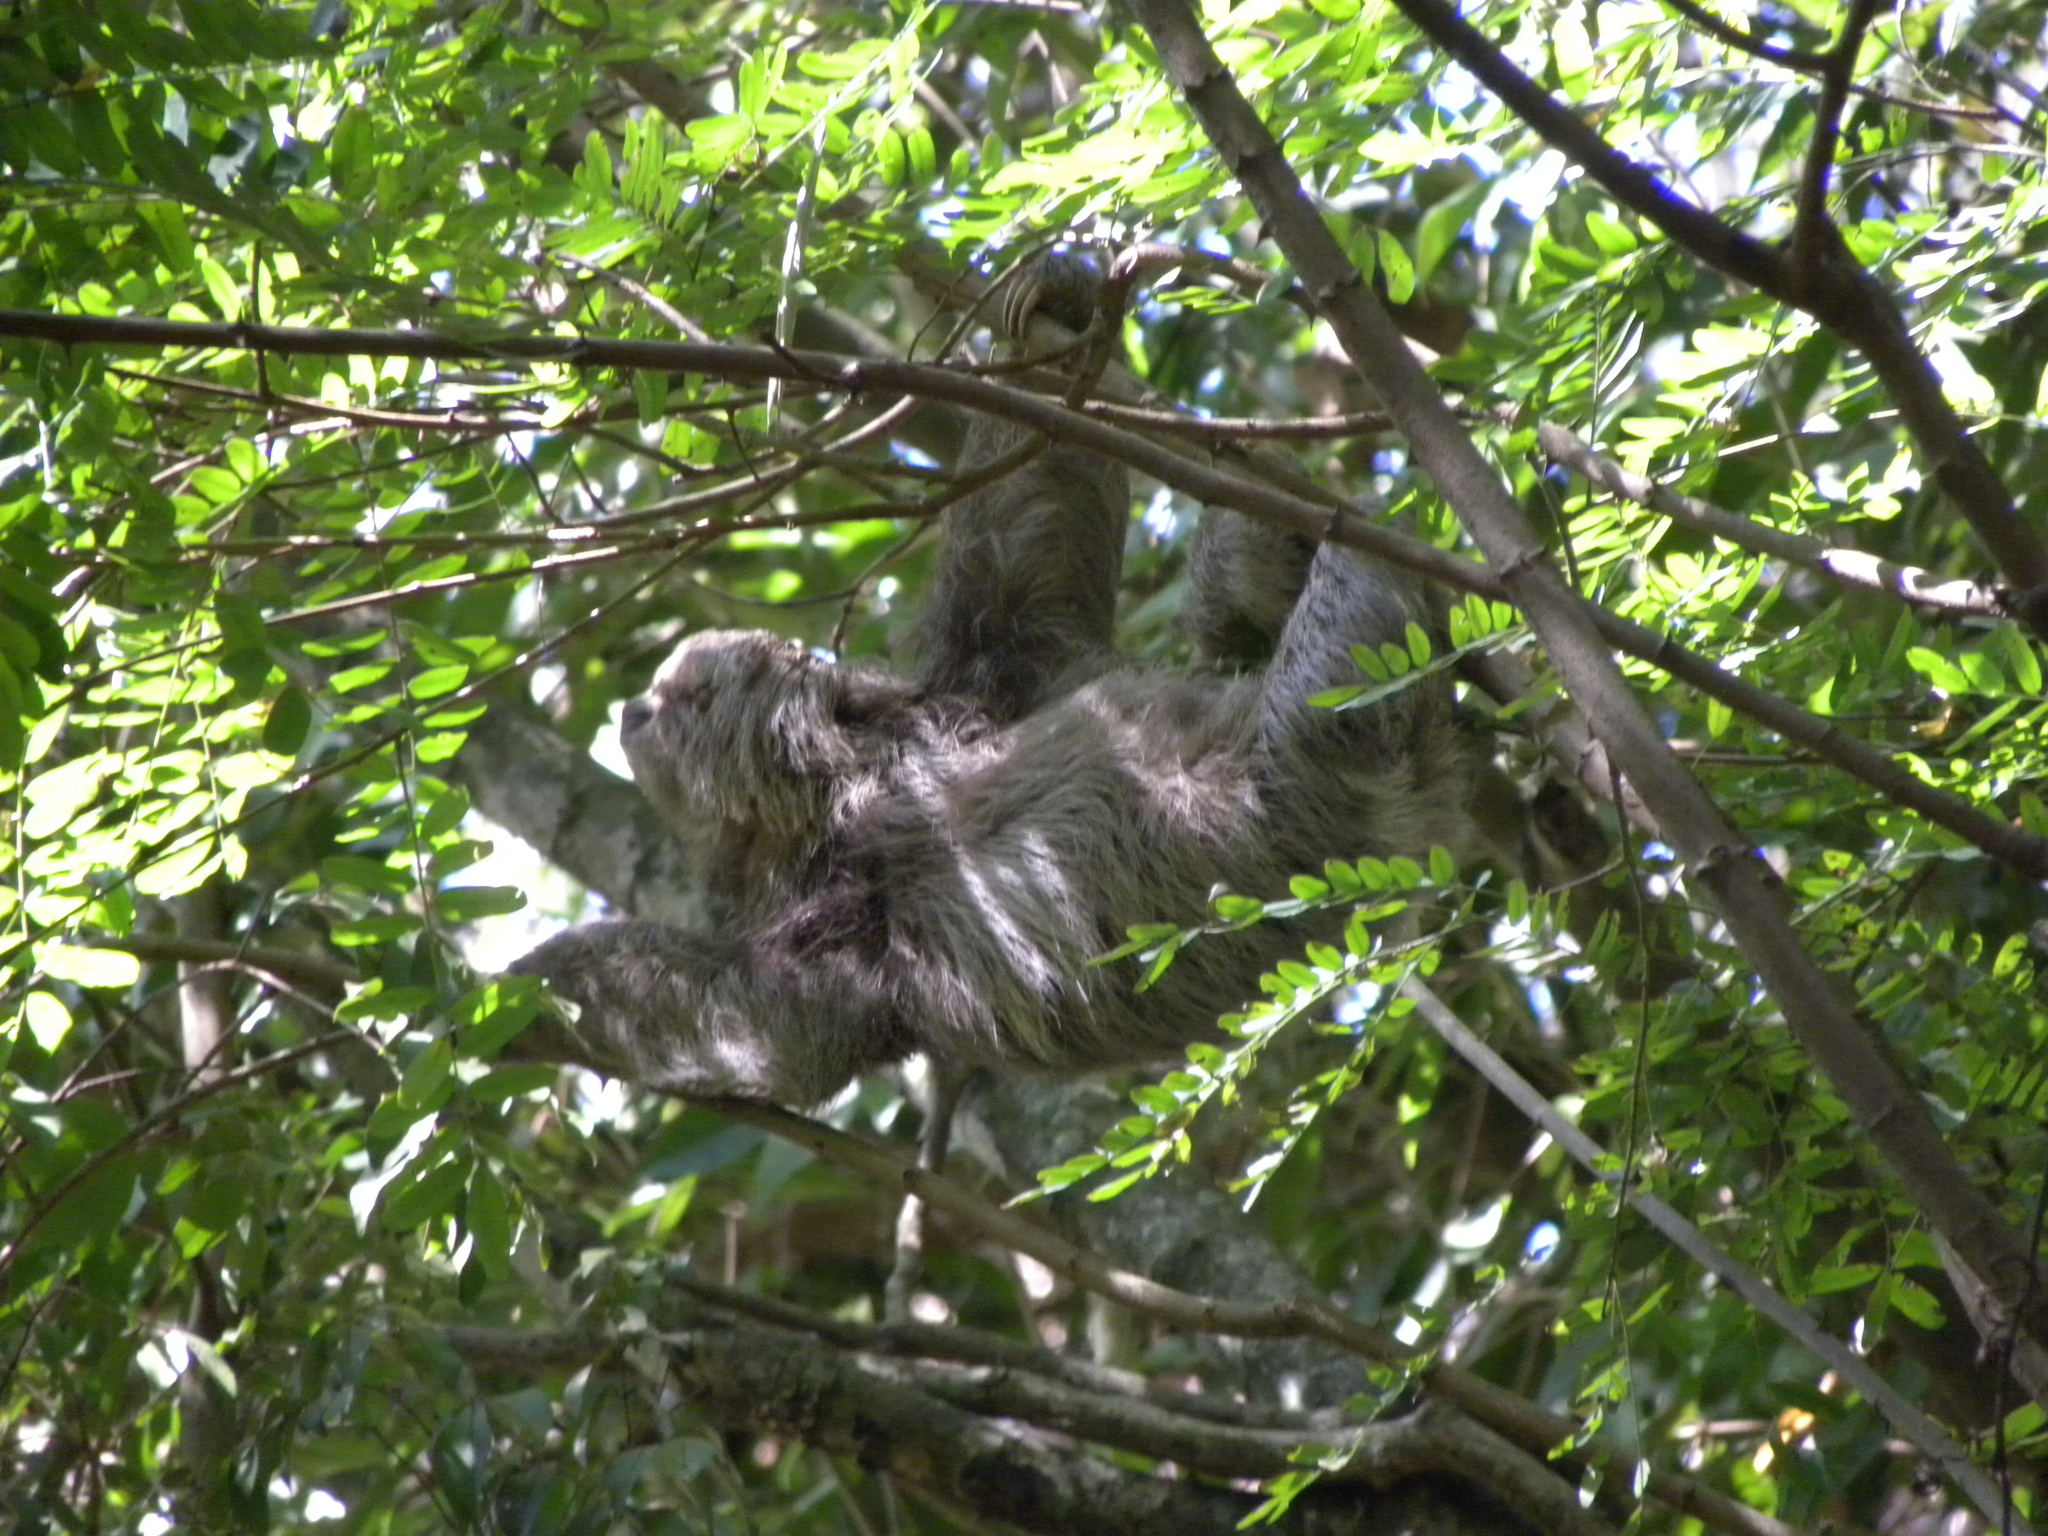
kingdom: Animalia
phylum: Chordata
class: Mammalia
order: Pilosa
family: Bradypodidae
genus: Bradypus
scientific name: Bradypus variegatus
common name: Brown-throated three-toed sloth
